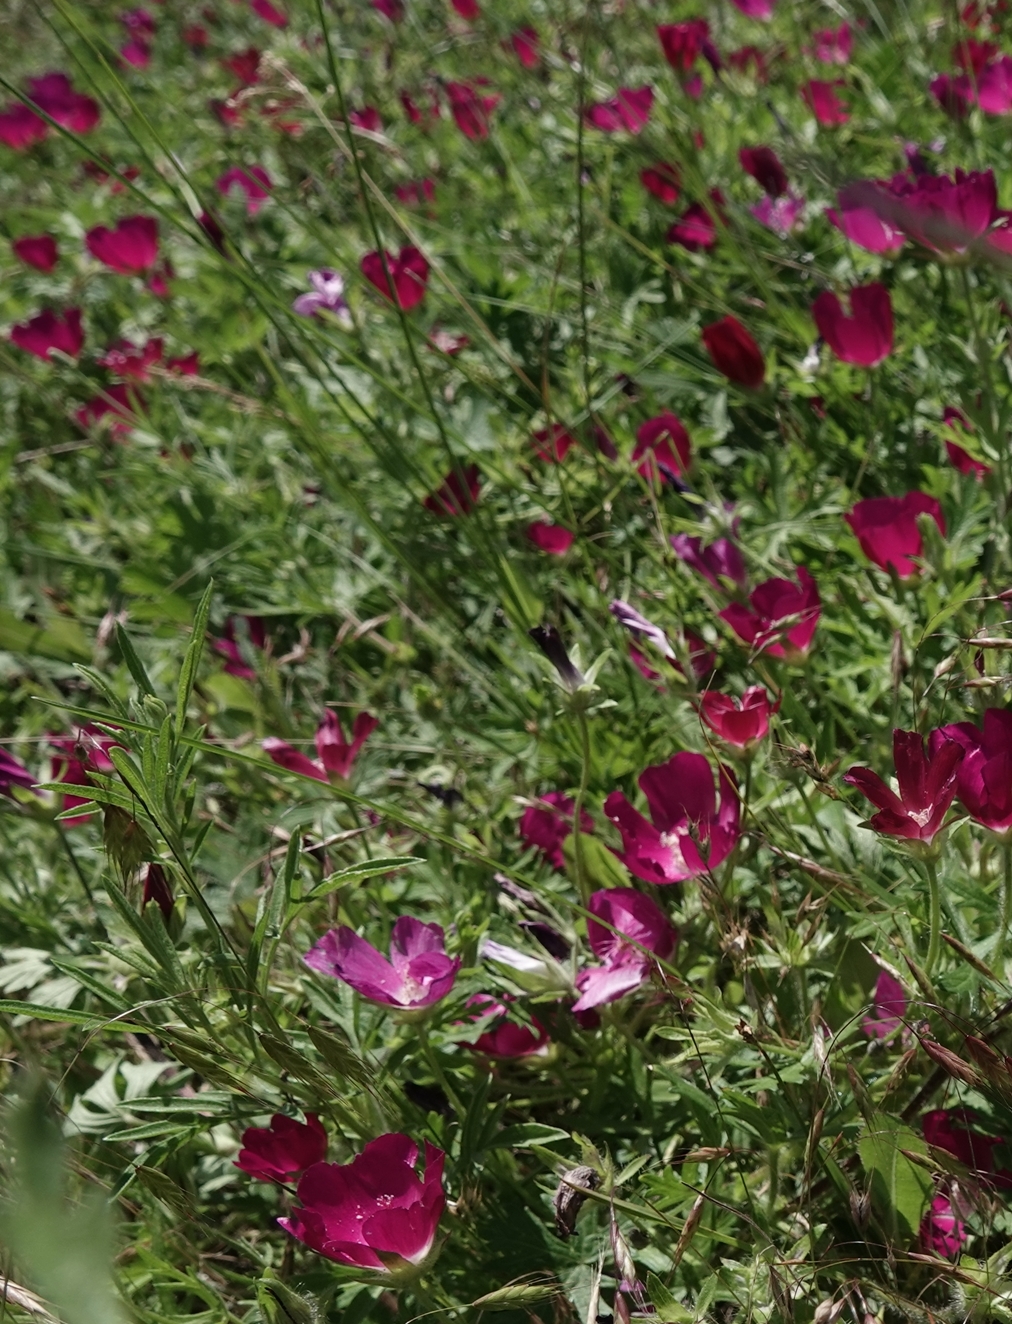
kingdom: Plantae
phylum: Tracheophyta
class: Magnoliopsida
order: Malvales
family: Malvaceae
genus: Callirhoe
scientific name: Callirhoe involucrata
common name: Purple poppy-mallow
